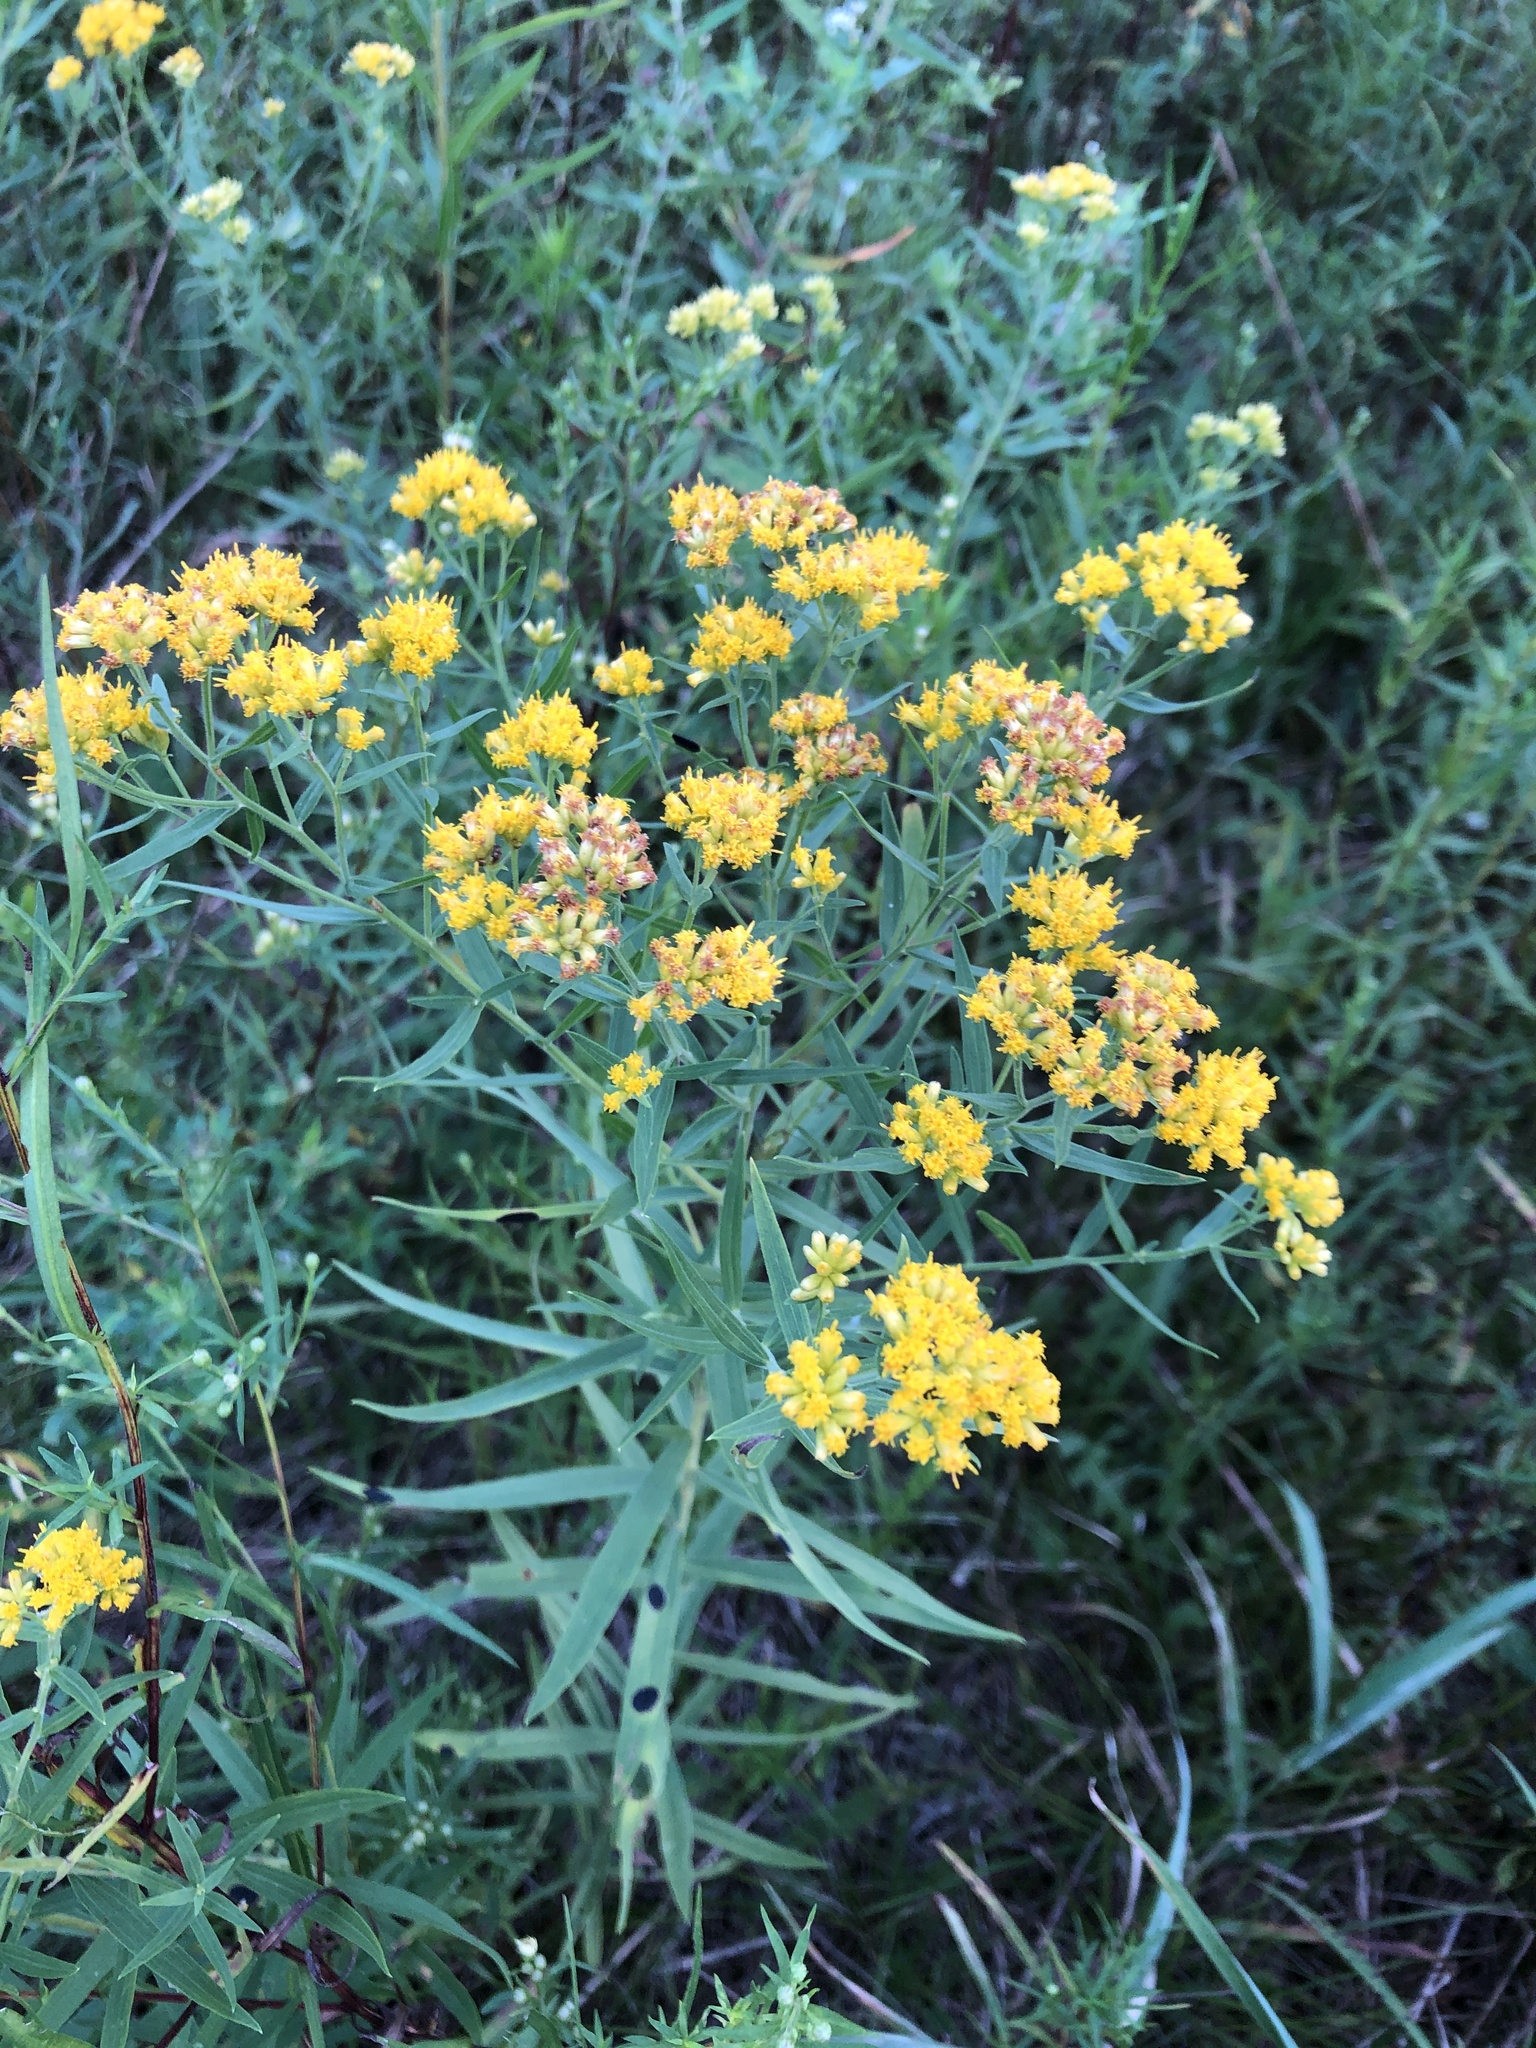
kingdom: Plantae
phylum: Tracheophyta
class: Magnoliopsida
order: Asterales
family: Asteraceae
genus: Euthamia
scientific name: Euthamia graminifolia
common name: Common goldentop
